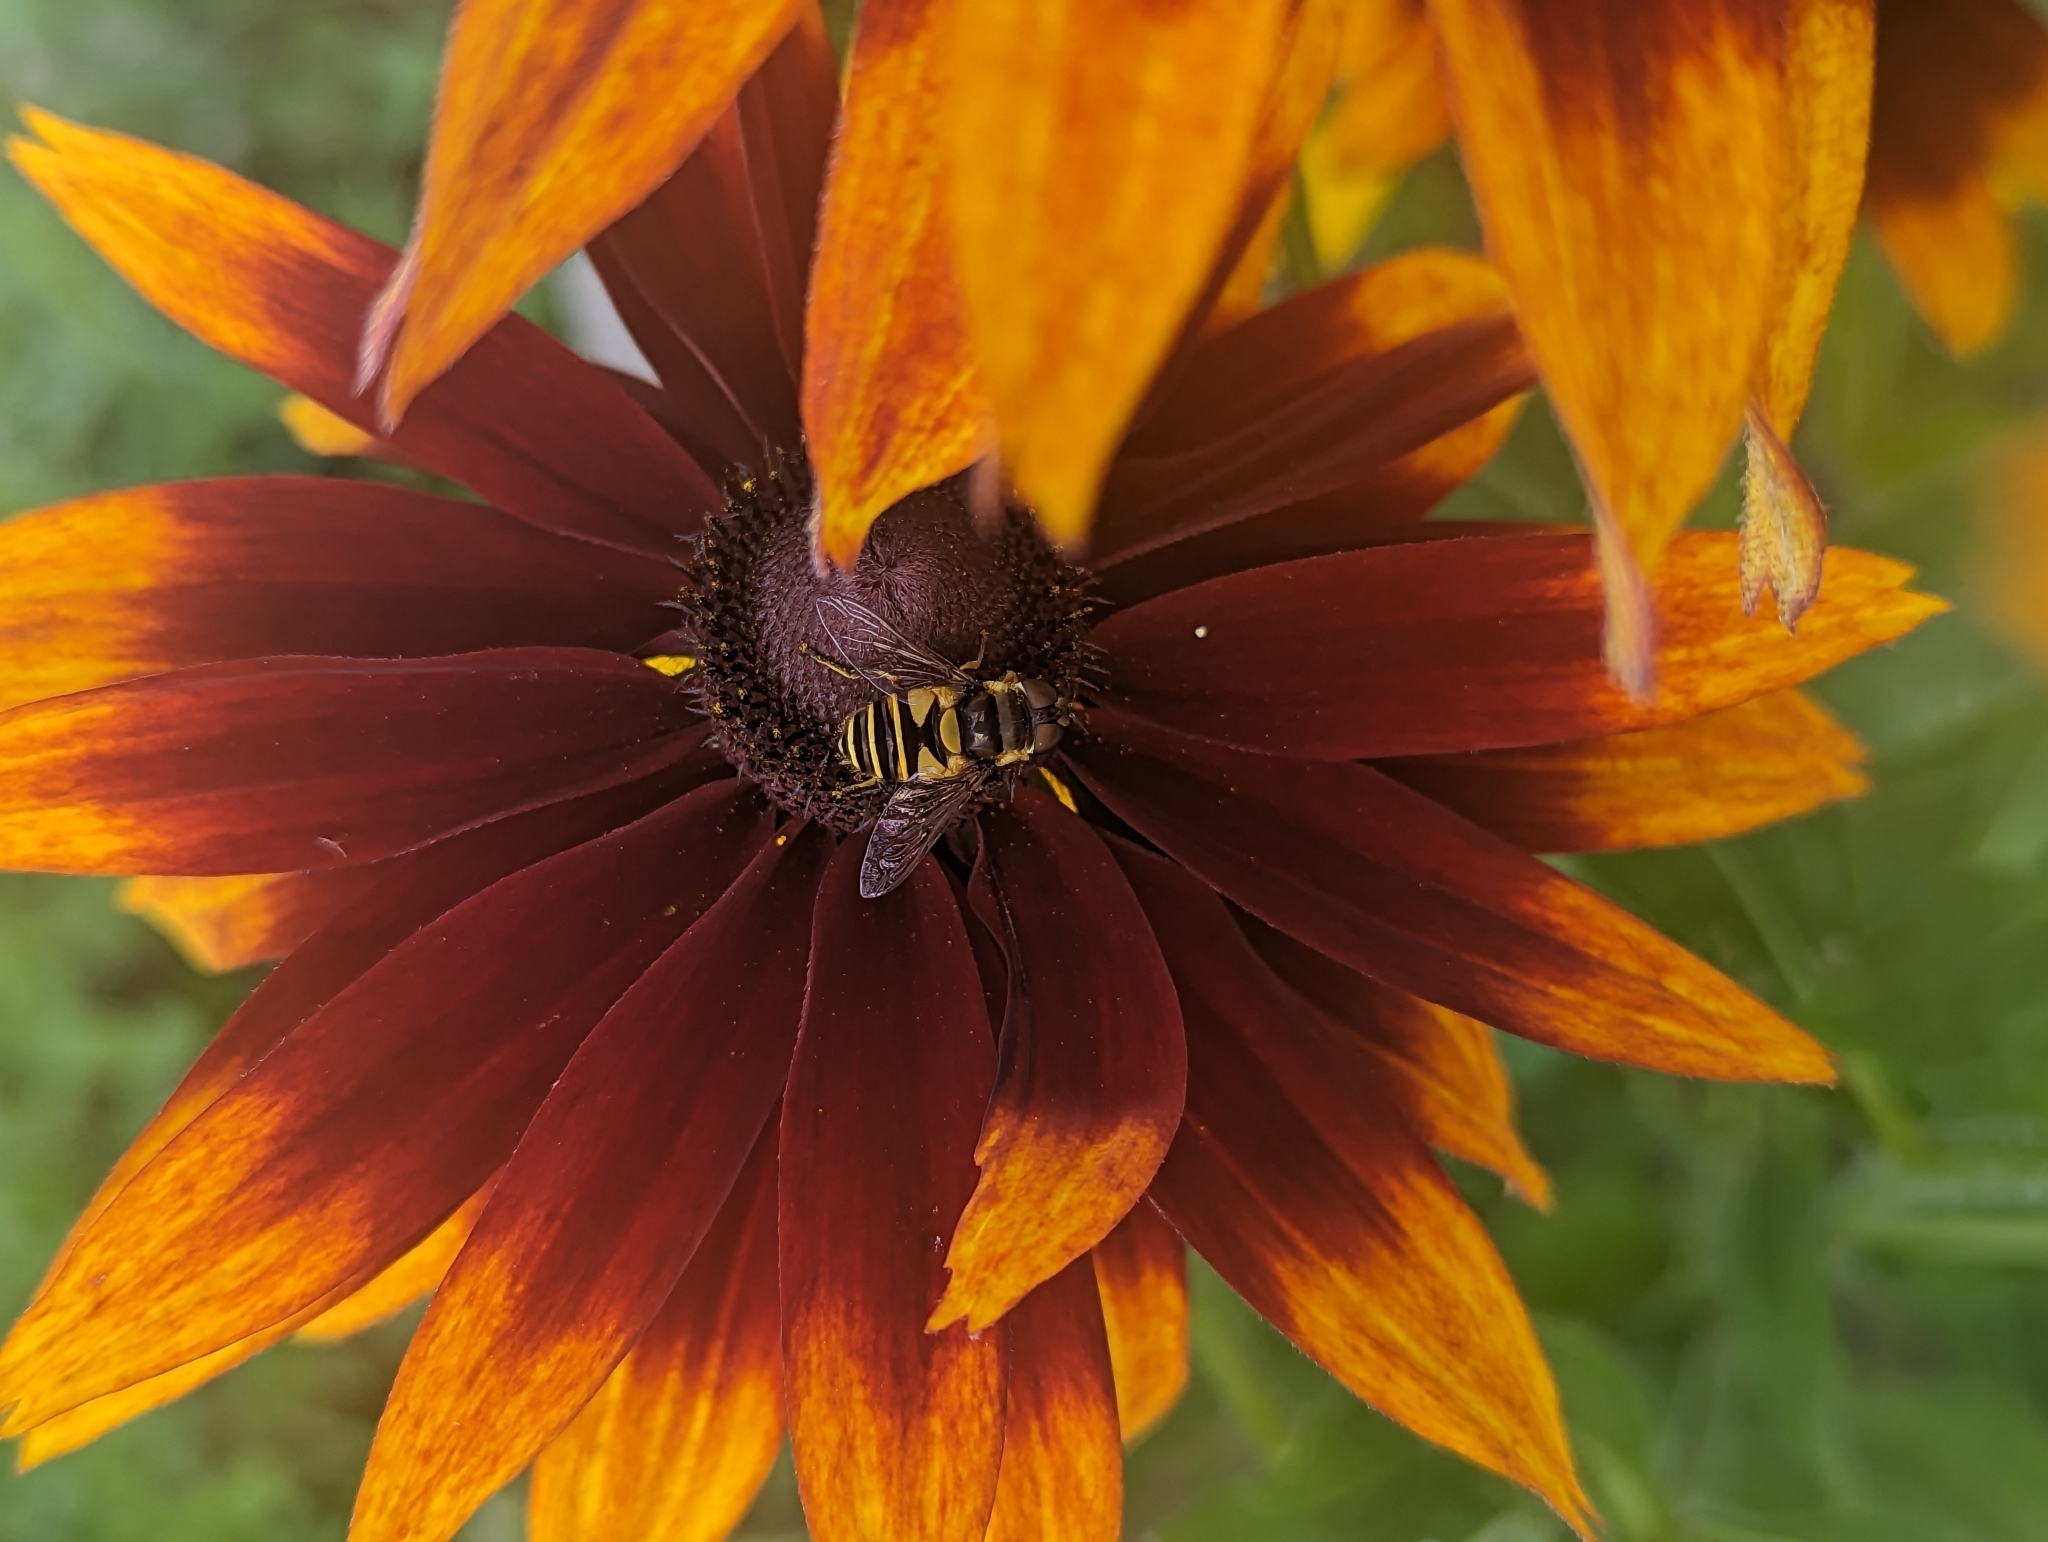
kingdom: Animalia
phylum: Arthropoda
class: Insecta
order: Diptera
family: Syrphidae
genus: Eristalis
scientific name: Eristalis transversa
